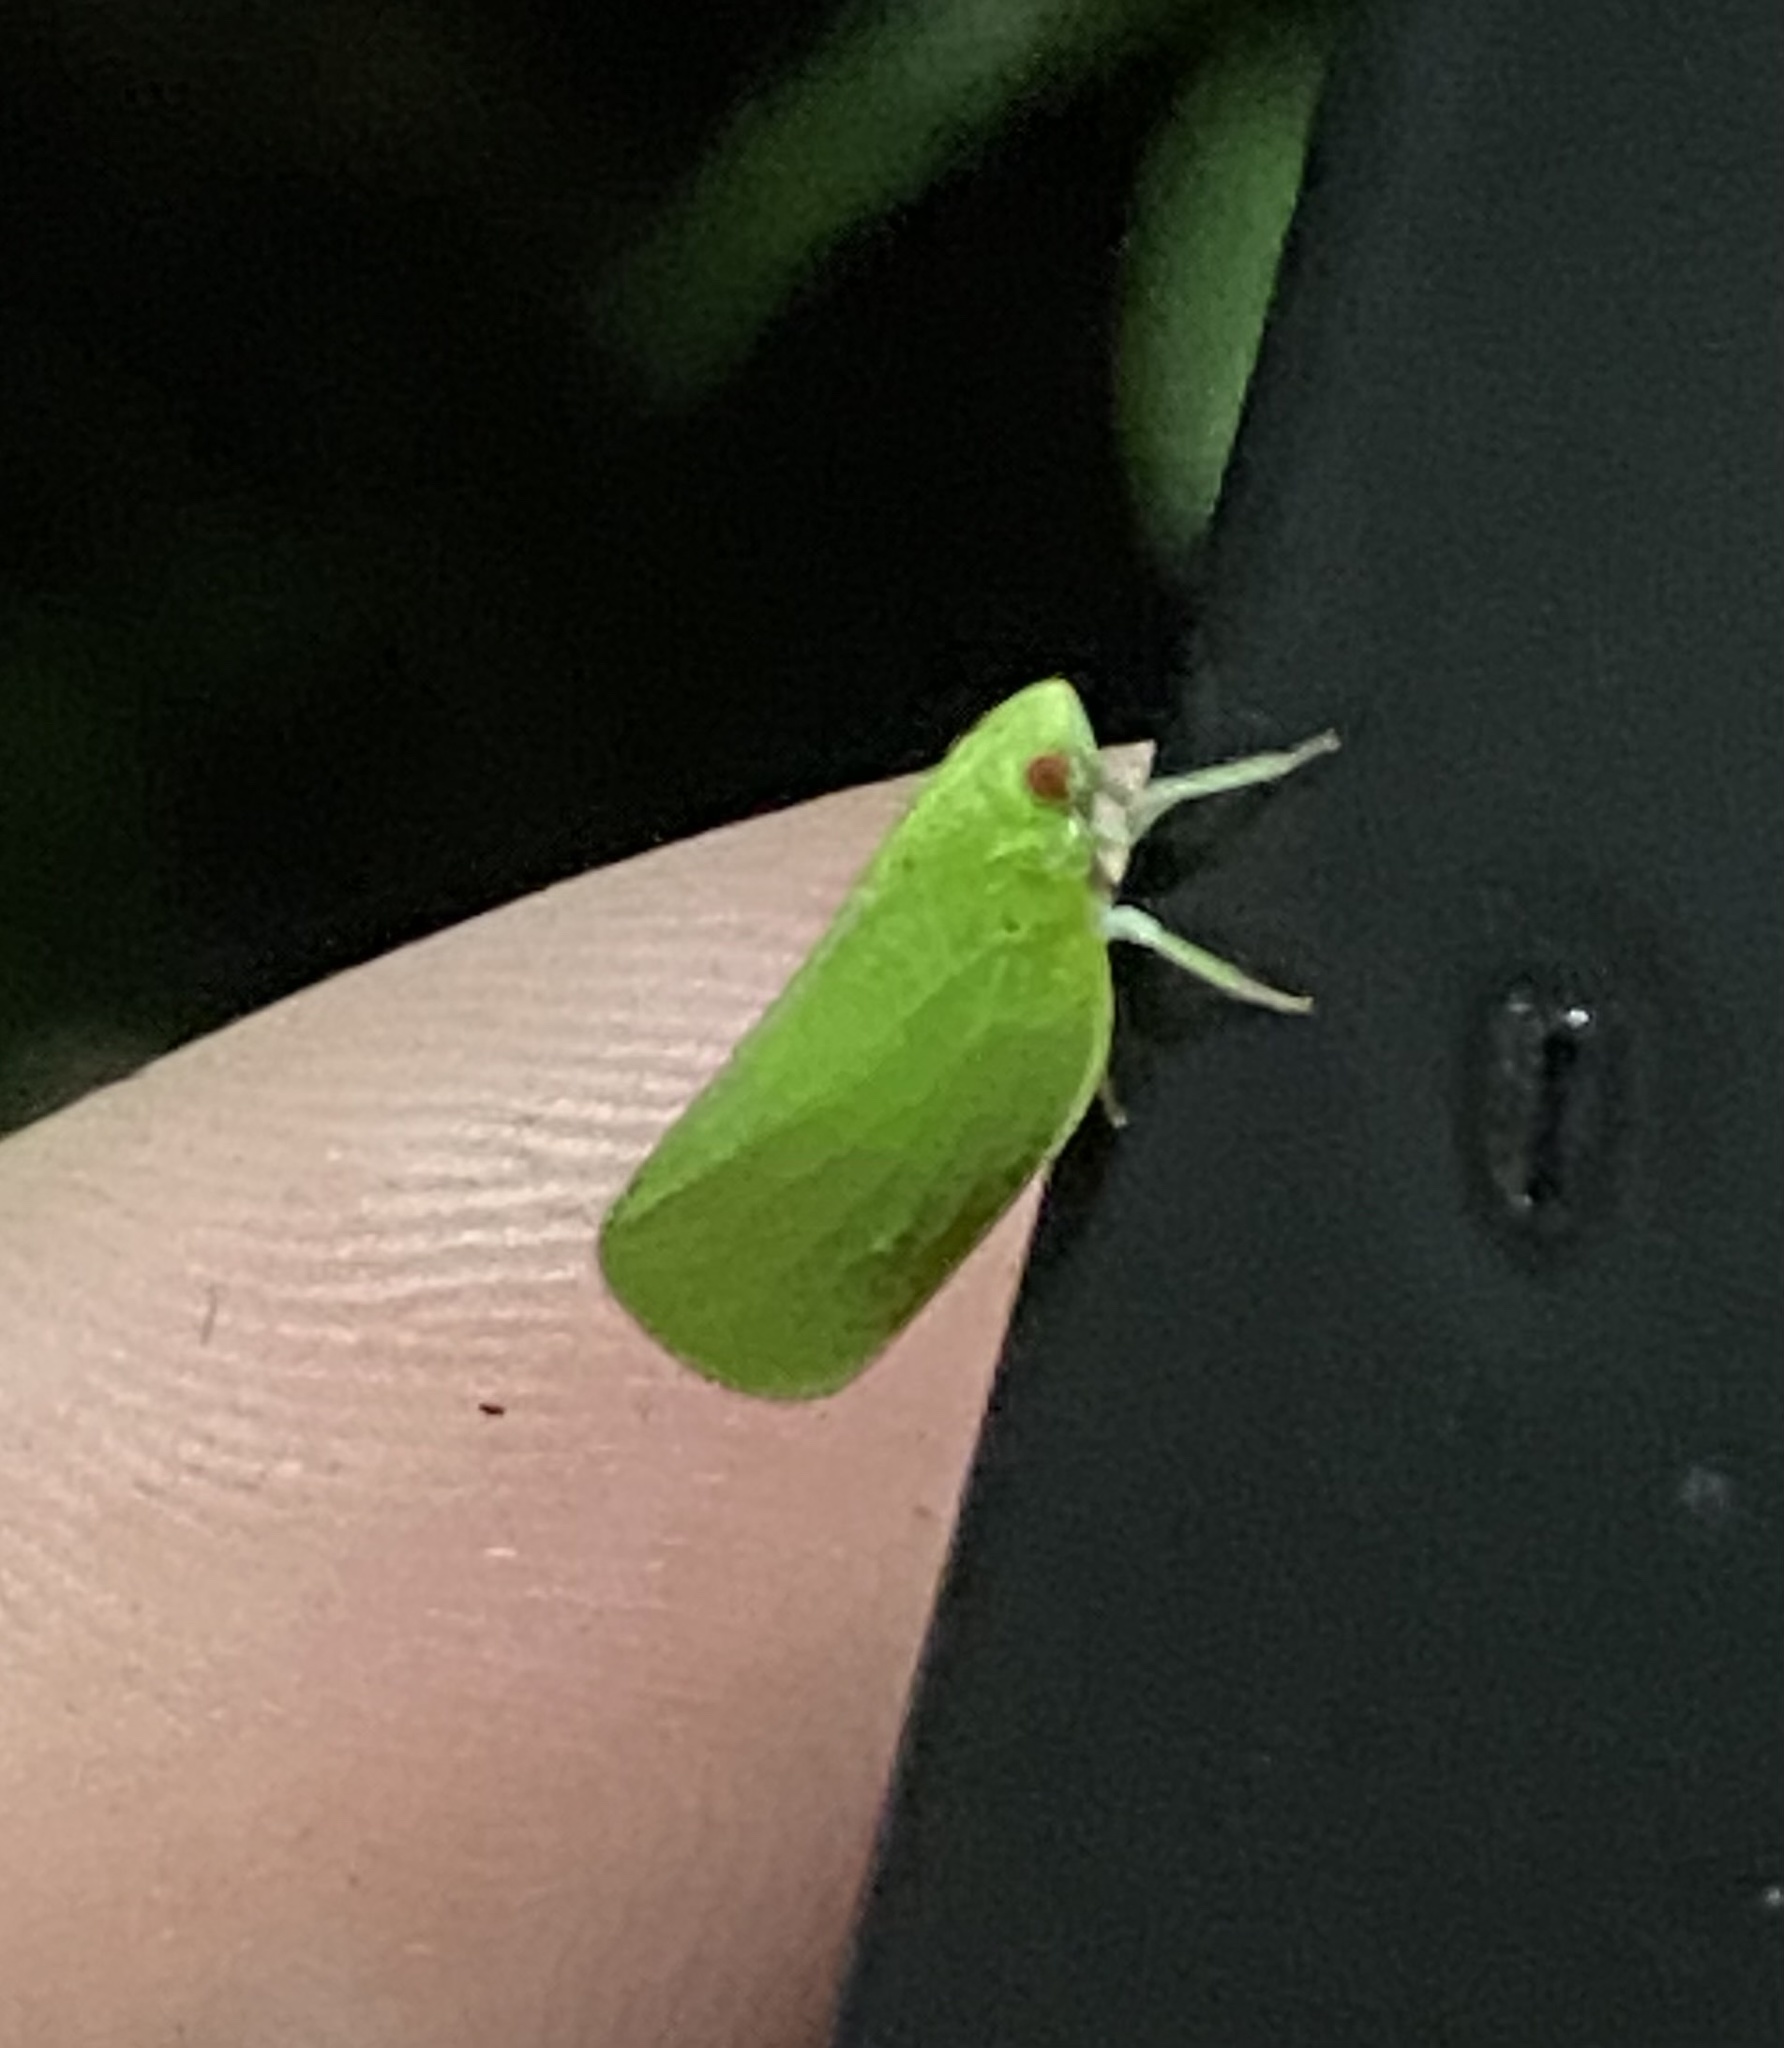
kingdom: Animalia
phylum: Arthropoda
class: Insecta
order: Hemiptera
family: Acanaloniidae
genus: Acanalonia
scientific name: Acanalonia conica
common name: Green cone-headed planthopper
